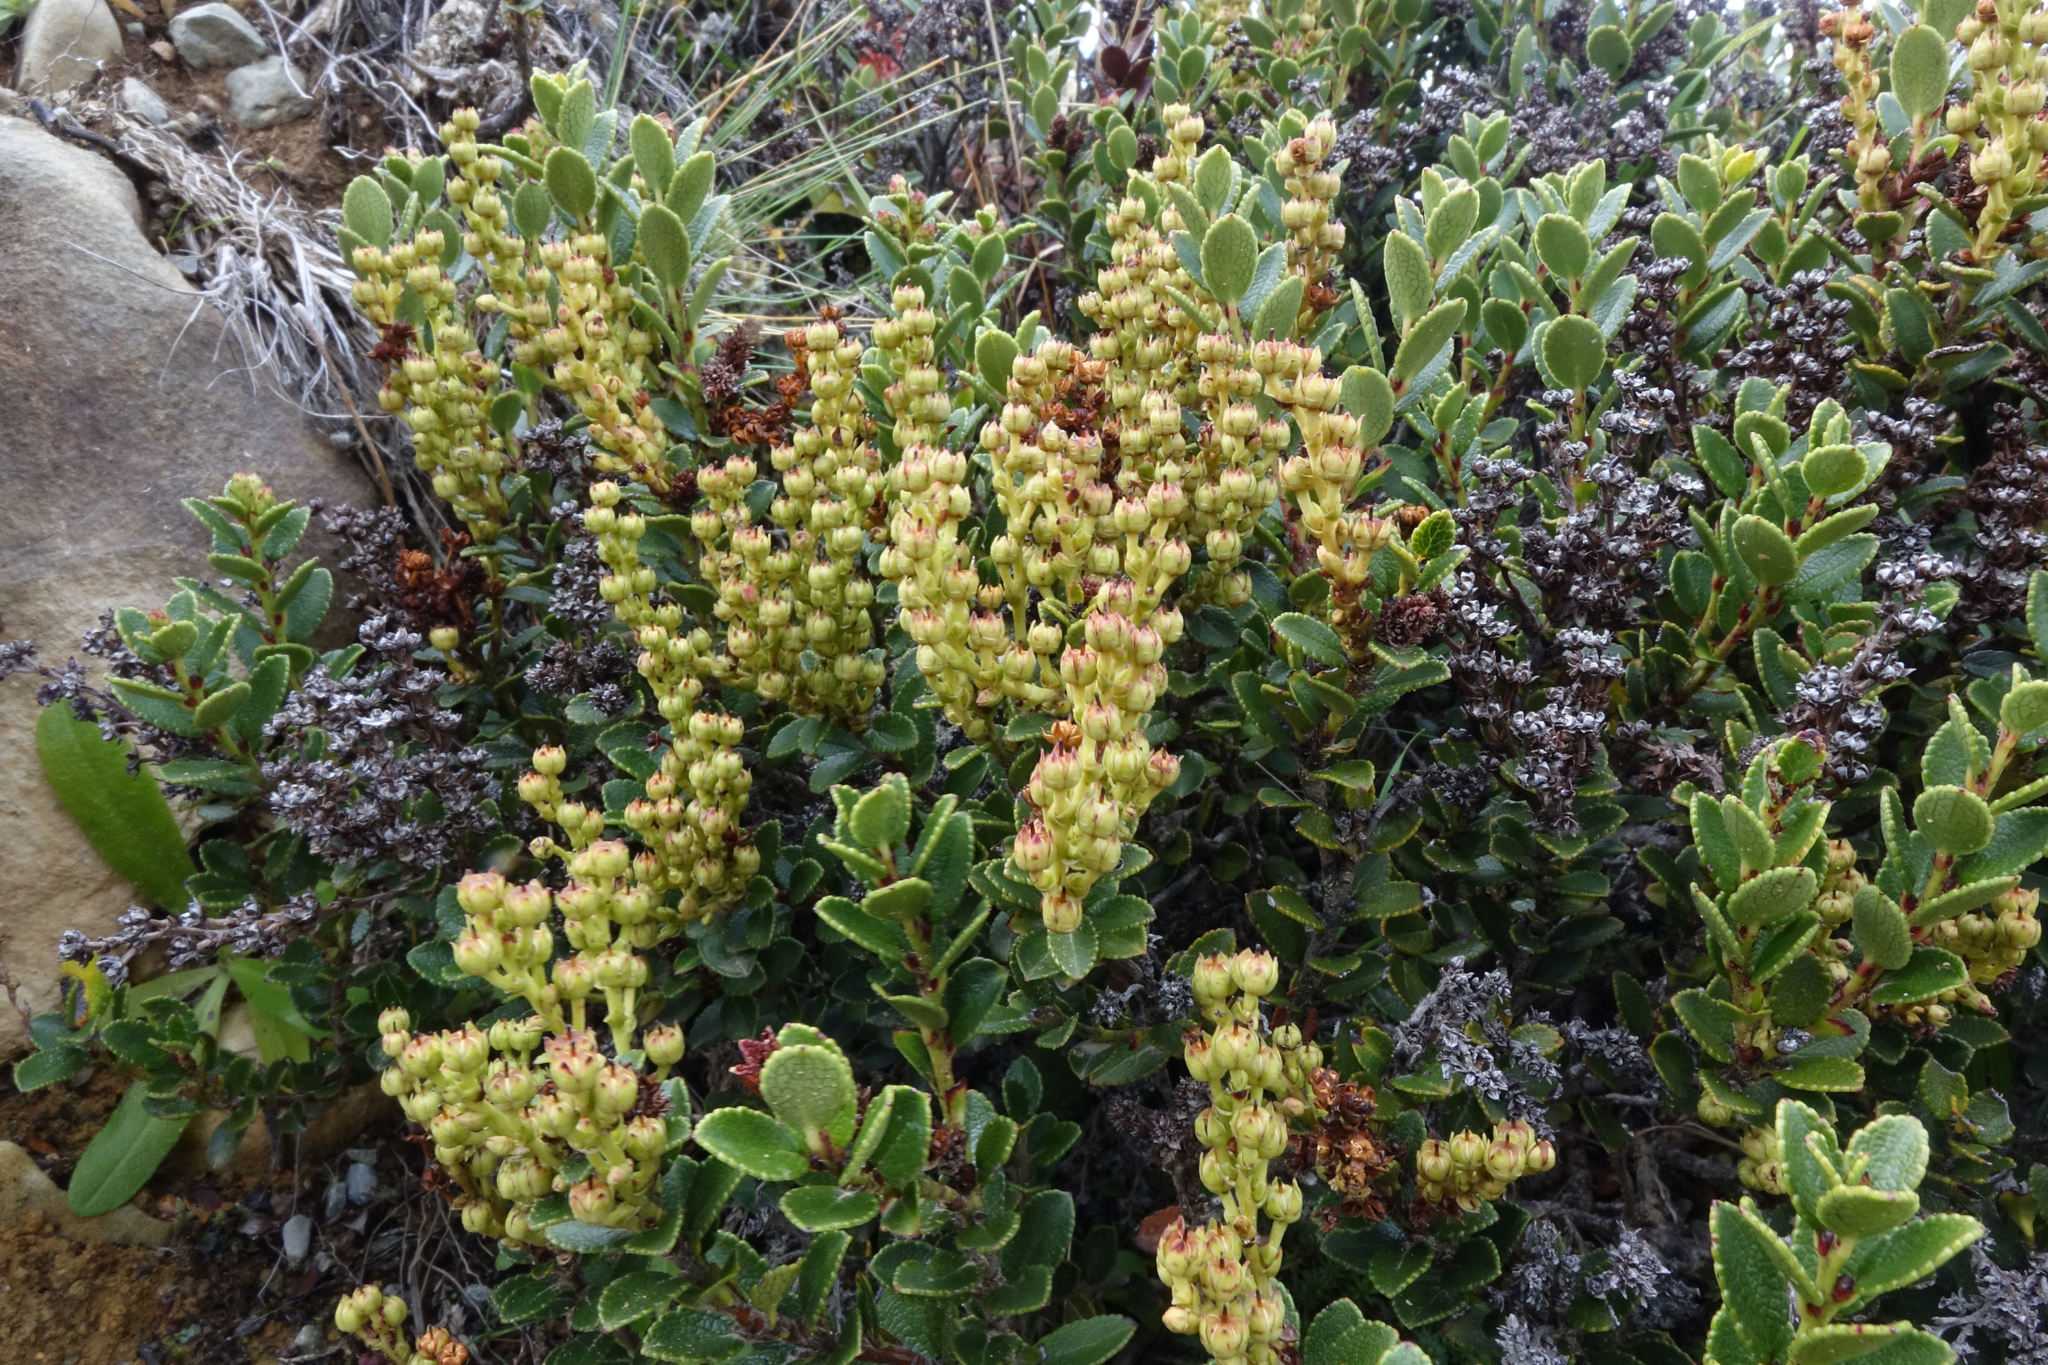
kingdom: Plantae
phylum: Tracheophyta
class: Magnoliopsida
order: Ericales
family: Ericaceae
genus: Gaultheria
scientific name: Gaultheria crassa
